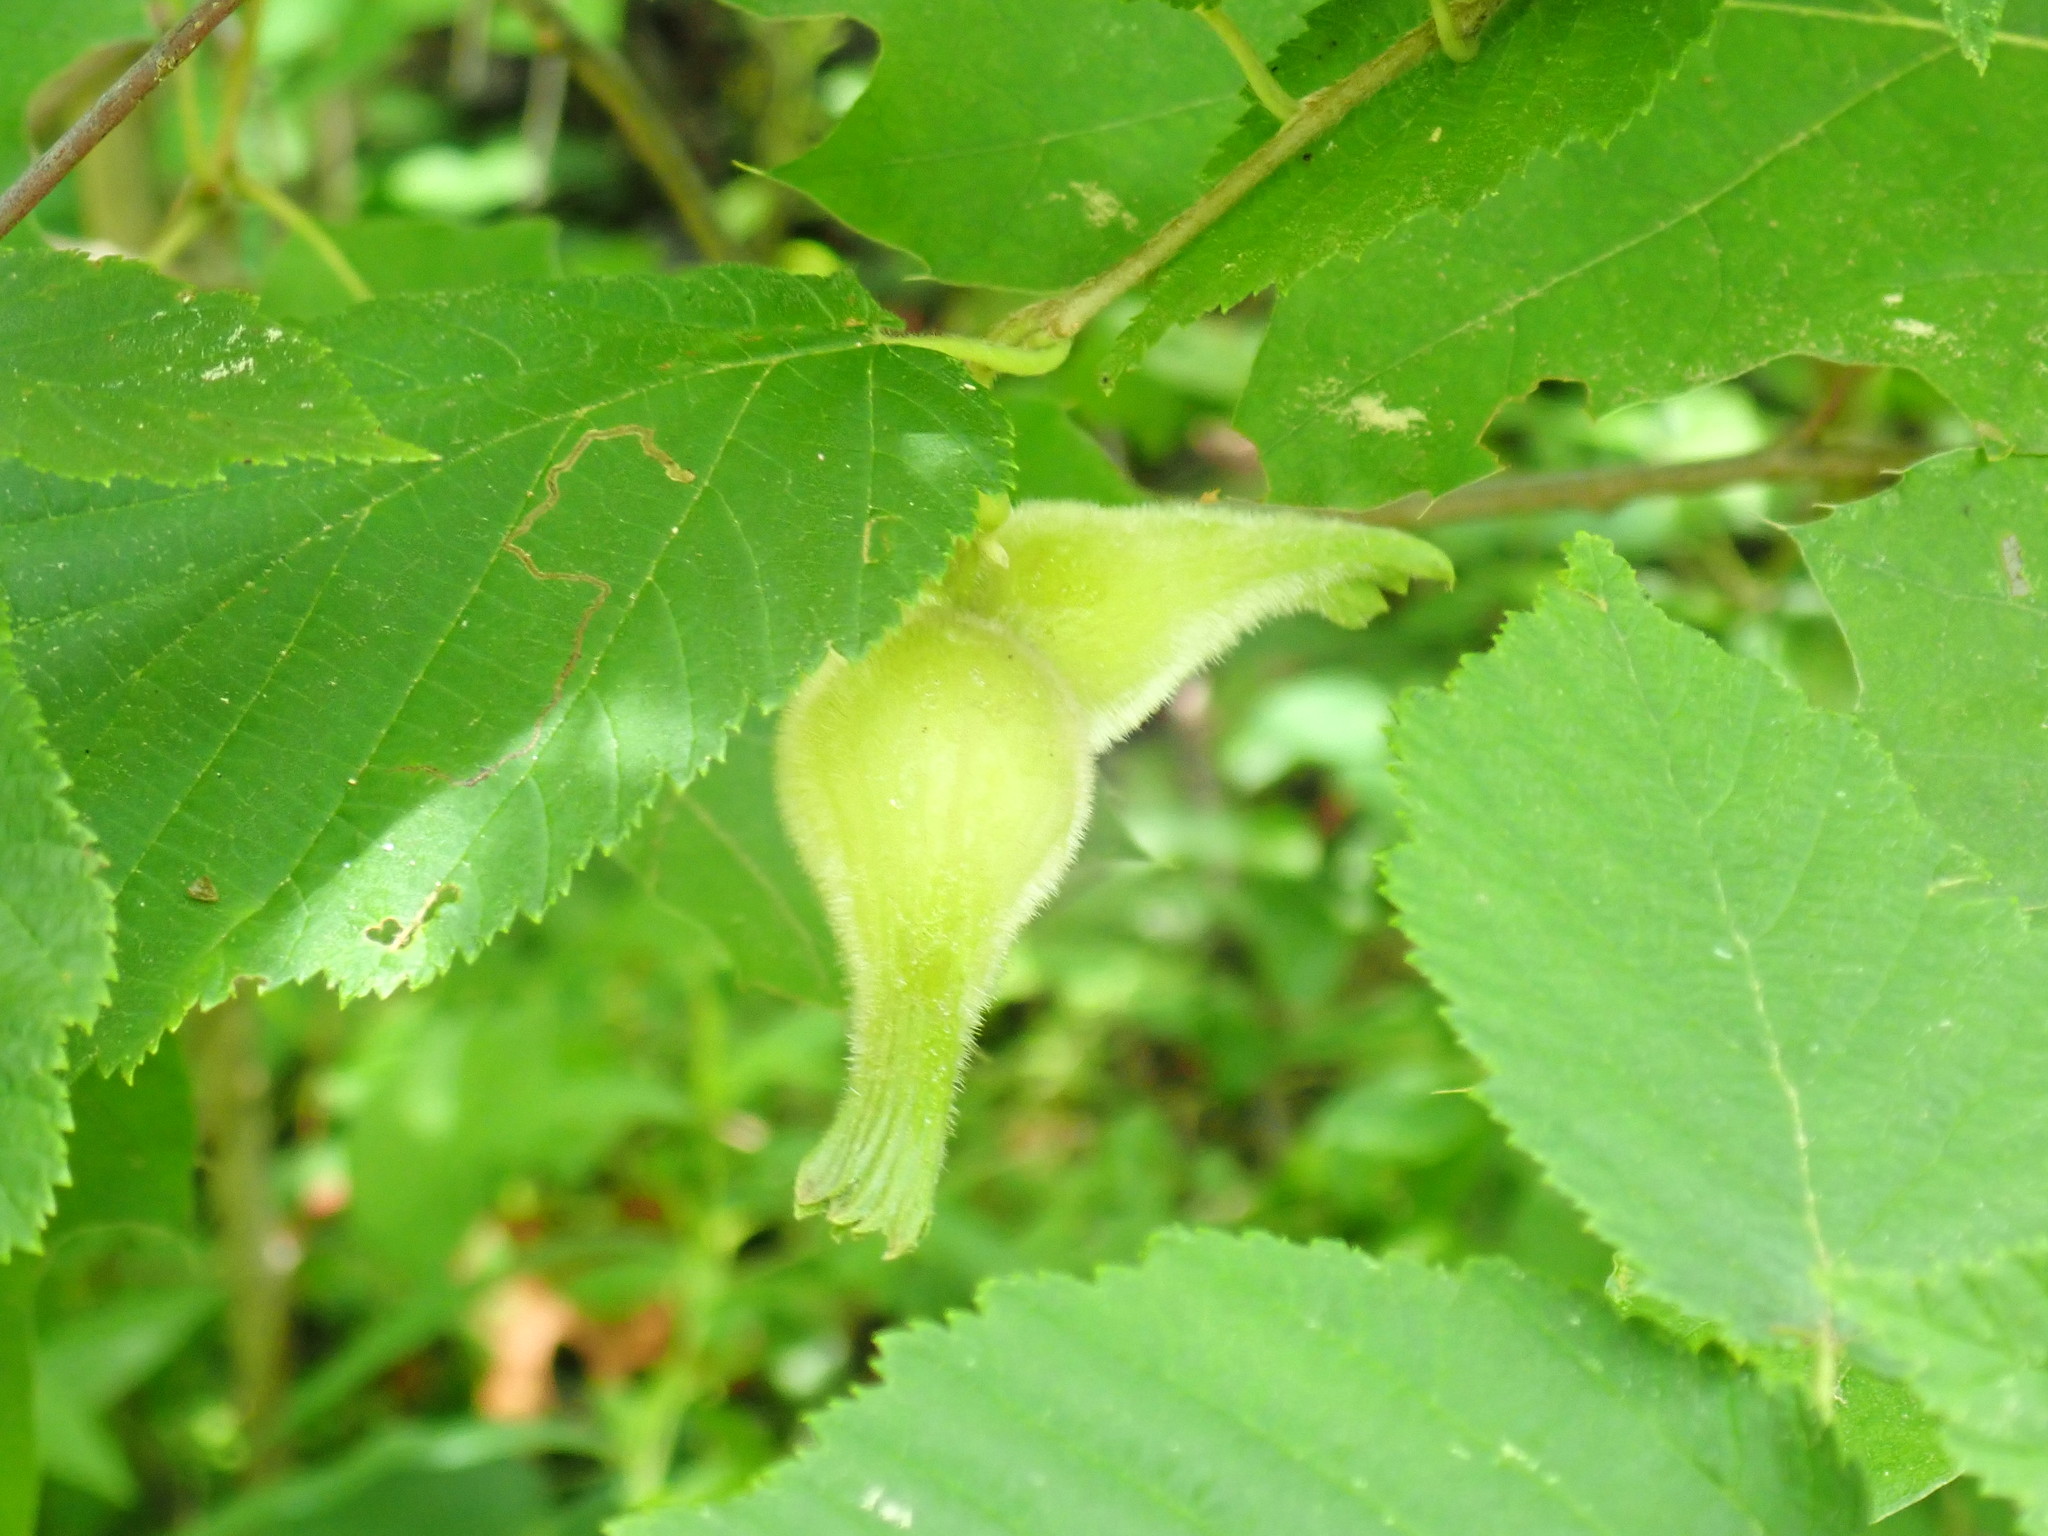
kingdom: Plantae
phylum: Tracheophyta
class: Magnoliopsida
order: Fagales
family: Betulaceae
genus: Corylus
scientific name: Corylus cornuta
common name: Beaked hazel
